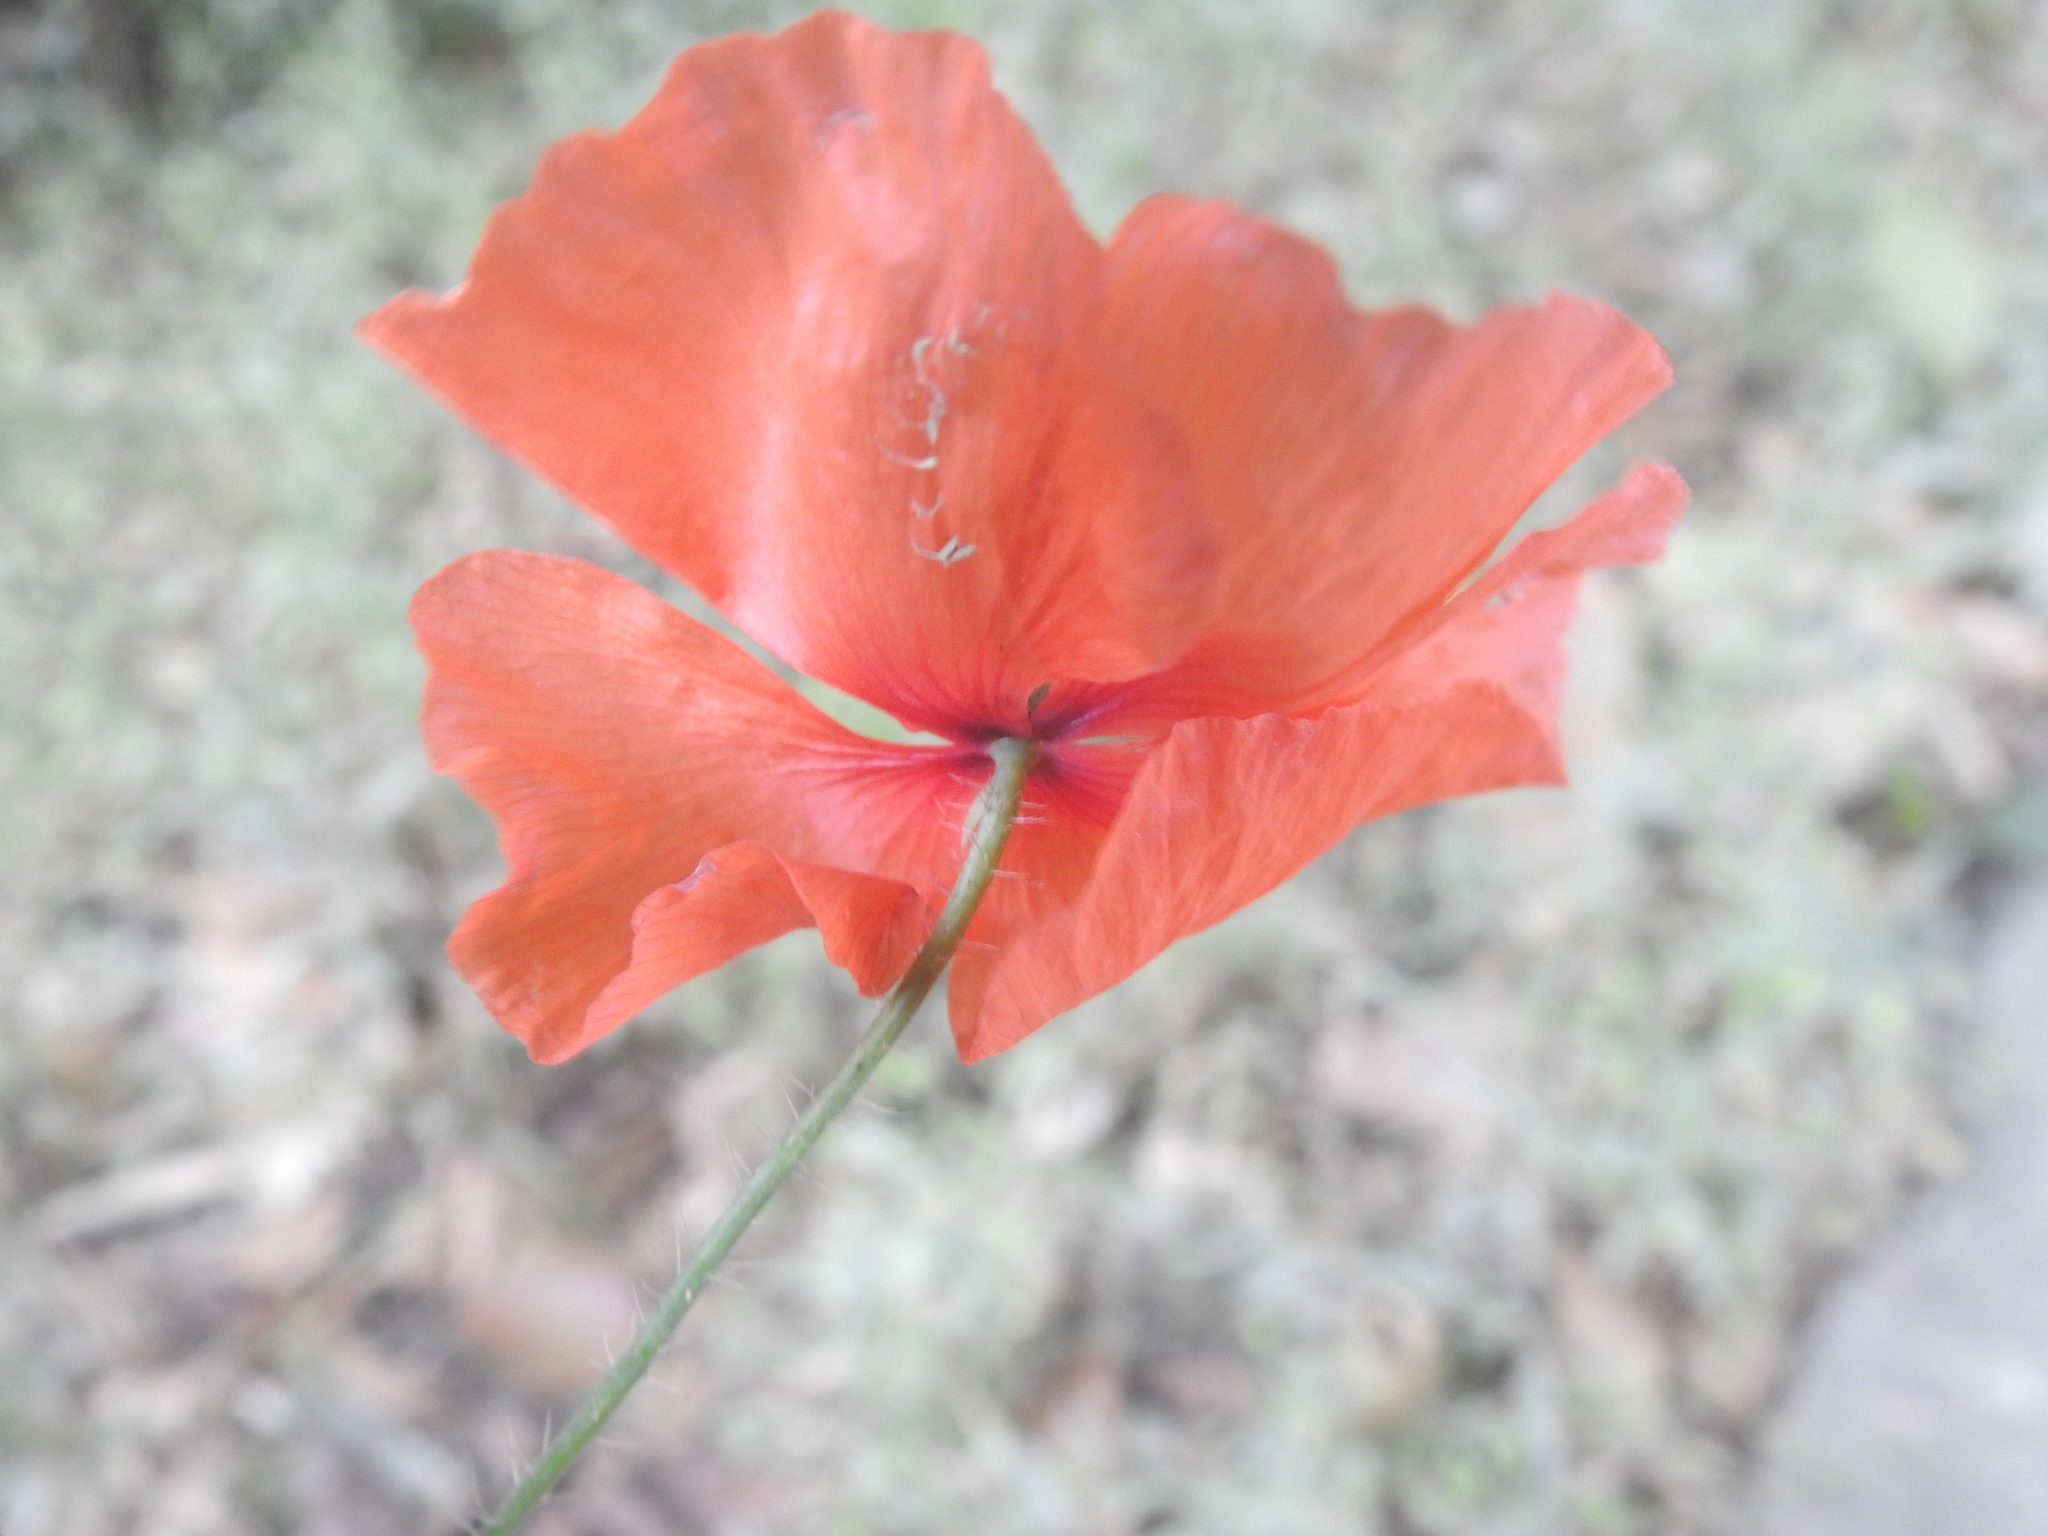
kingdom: Plantae
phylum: Tracheophyta
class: Magnoliopsida
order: Ranunculales
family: Papaveraceae
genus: Papaver
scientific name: Papaver rhoeas
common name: Corn poppy
